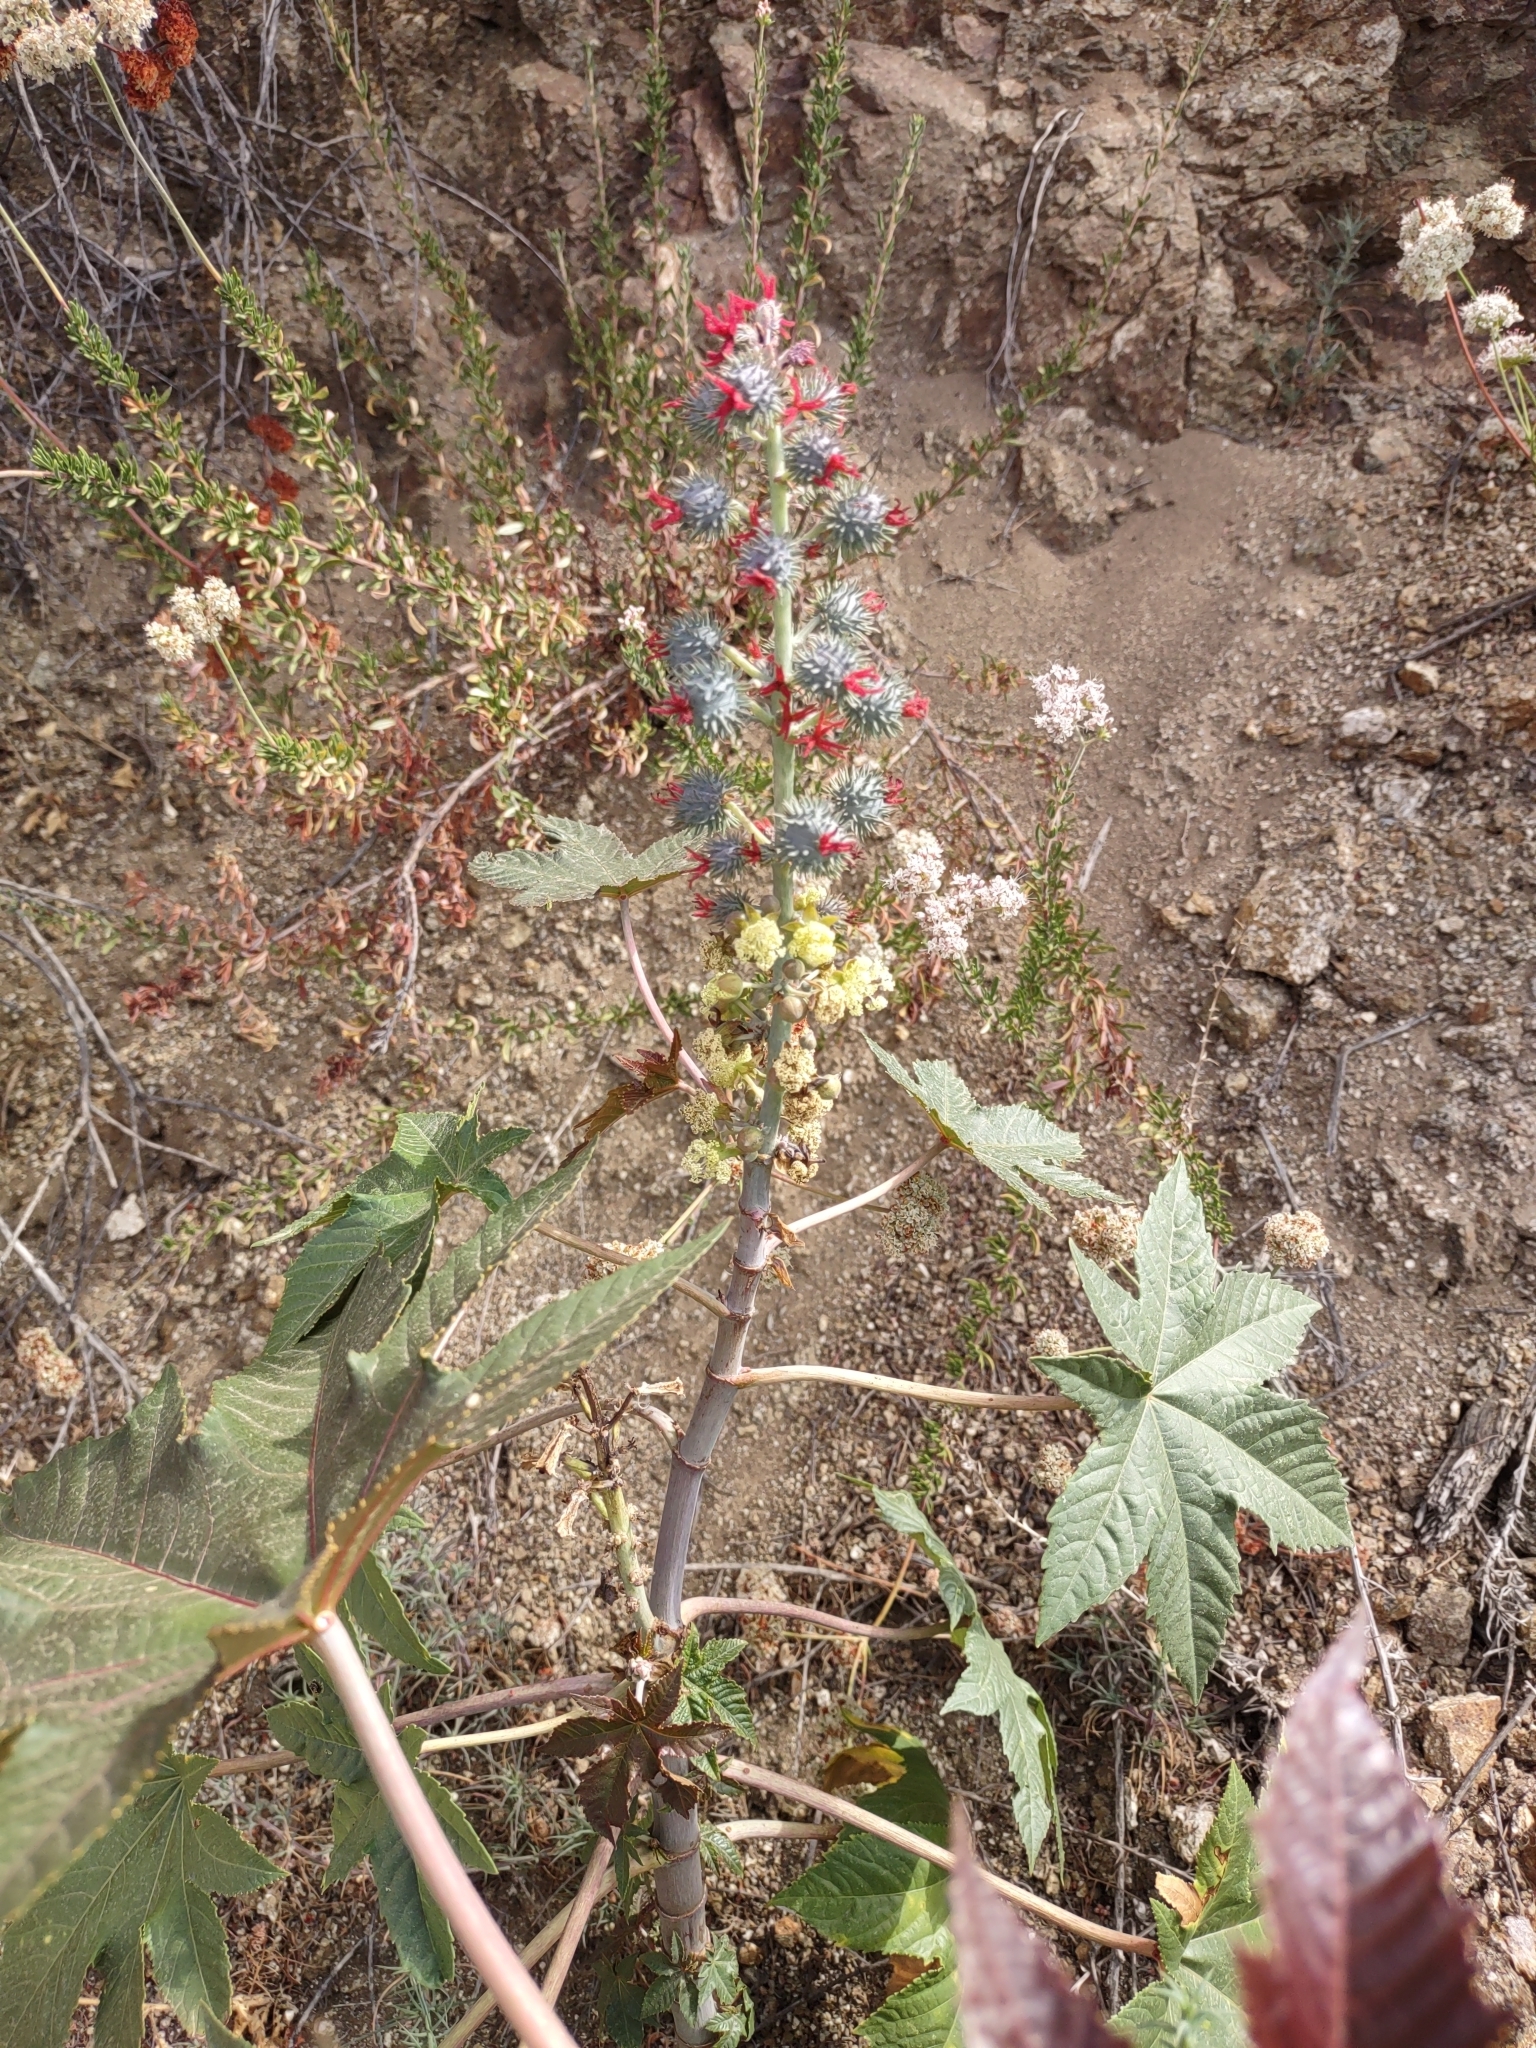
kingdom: Plantae
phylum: Tracheophyta
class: Magnoliopsida
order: Malpighiales
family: Euphorbiaceae
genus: Ricinus
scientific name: Ricinus communis
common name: Castor-oil-plant
